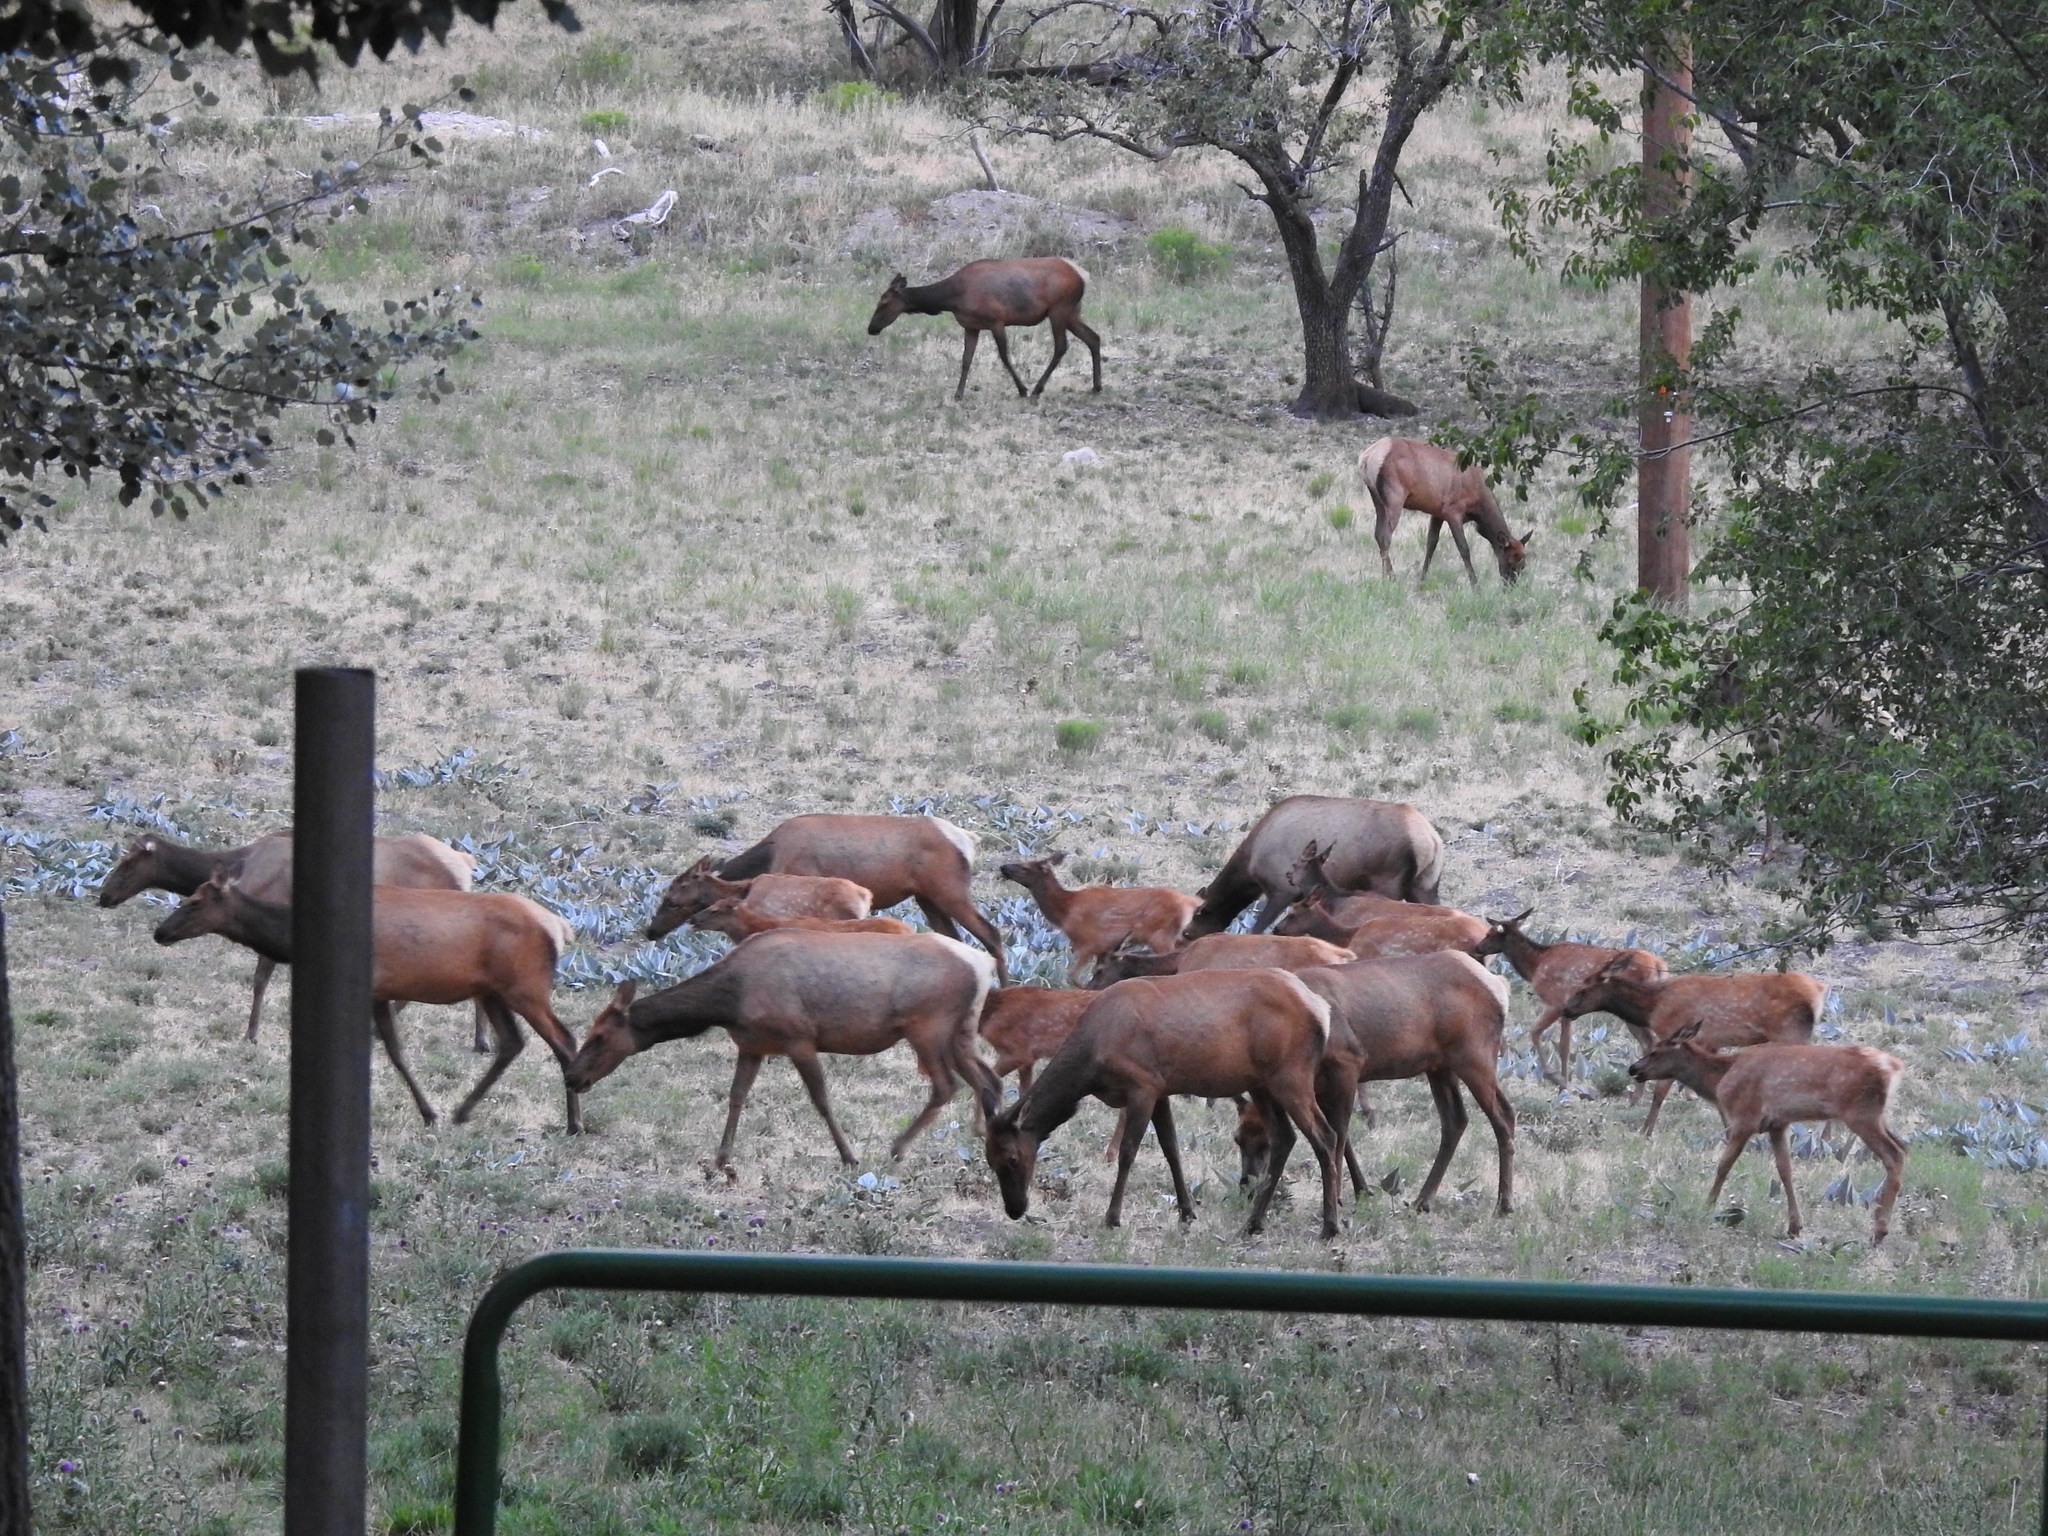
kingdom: Animalia
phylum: Chordata
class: Mammalia
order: Artiodactyla
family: Cervidae
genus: Cervus
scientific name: Cervus elaphus
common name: Red deer
